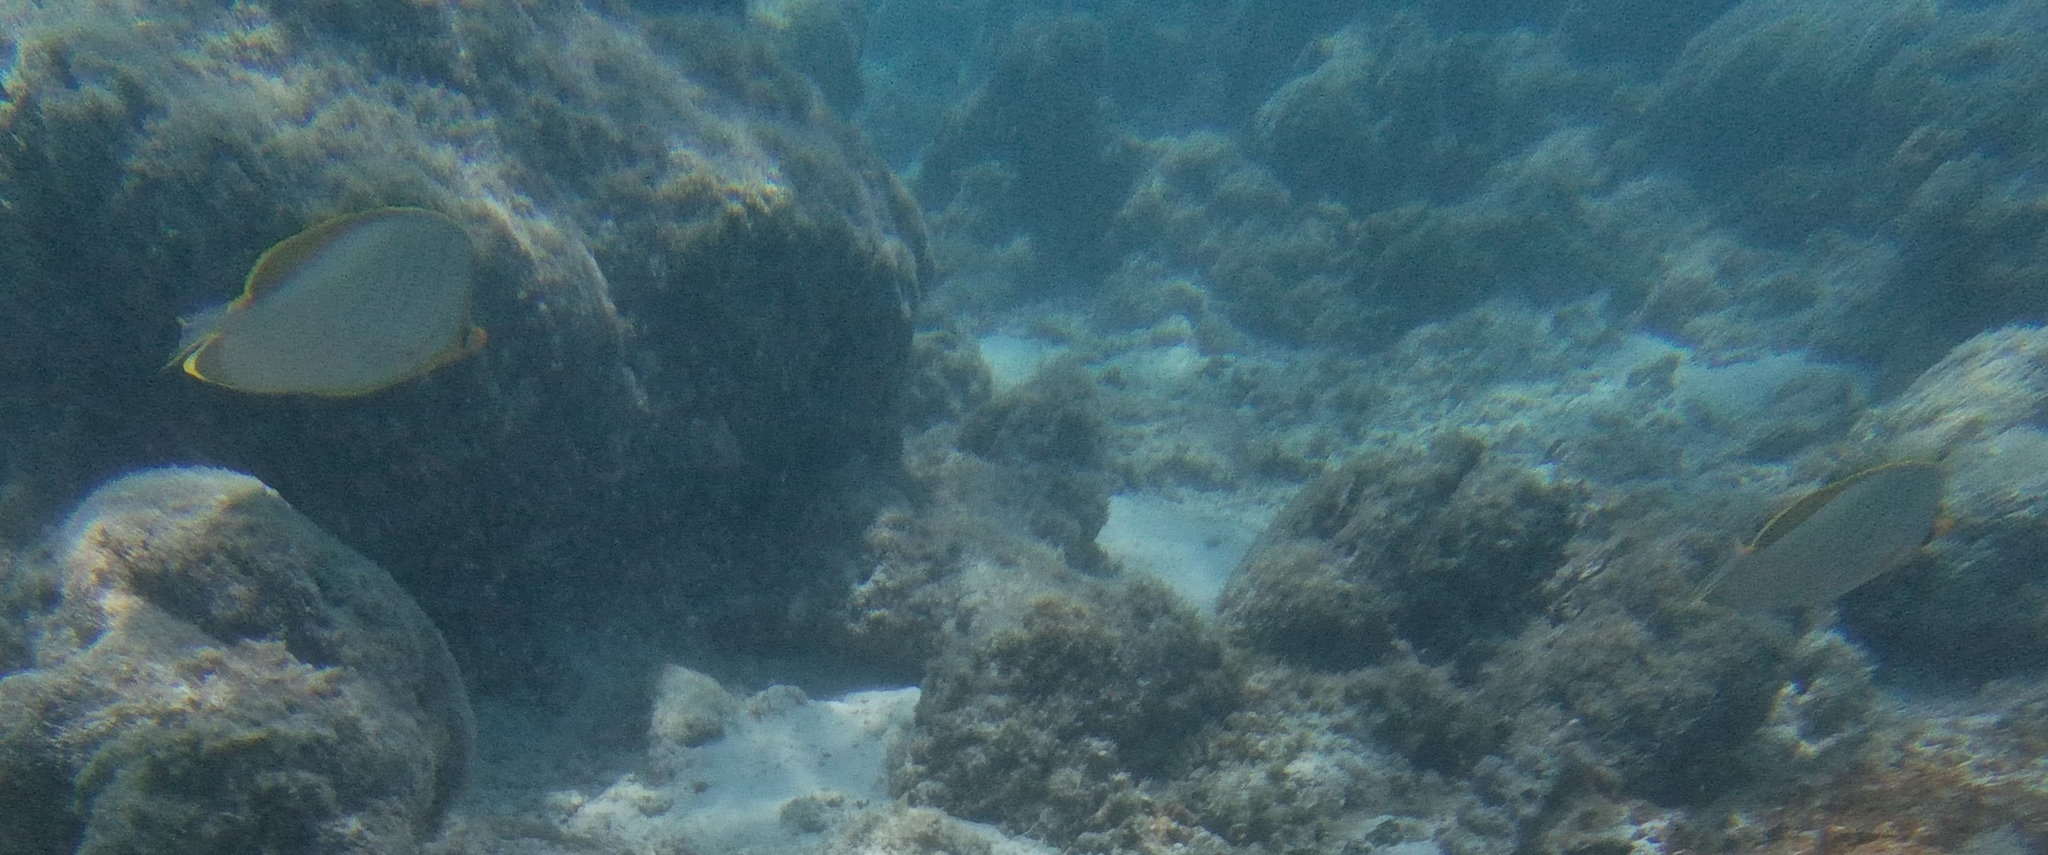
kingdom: Animalia
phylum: Chordata
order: Perciformes
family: Chaetodontidae
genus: Chaetodon
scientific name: Chaetodon xanthocephalus
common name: Yellowhead butterflyfish
